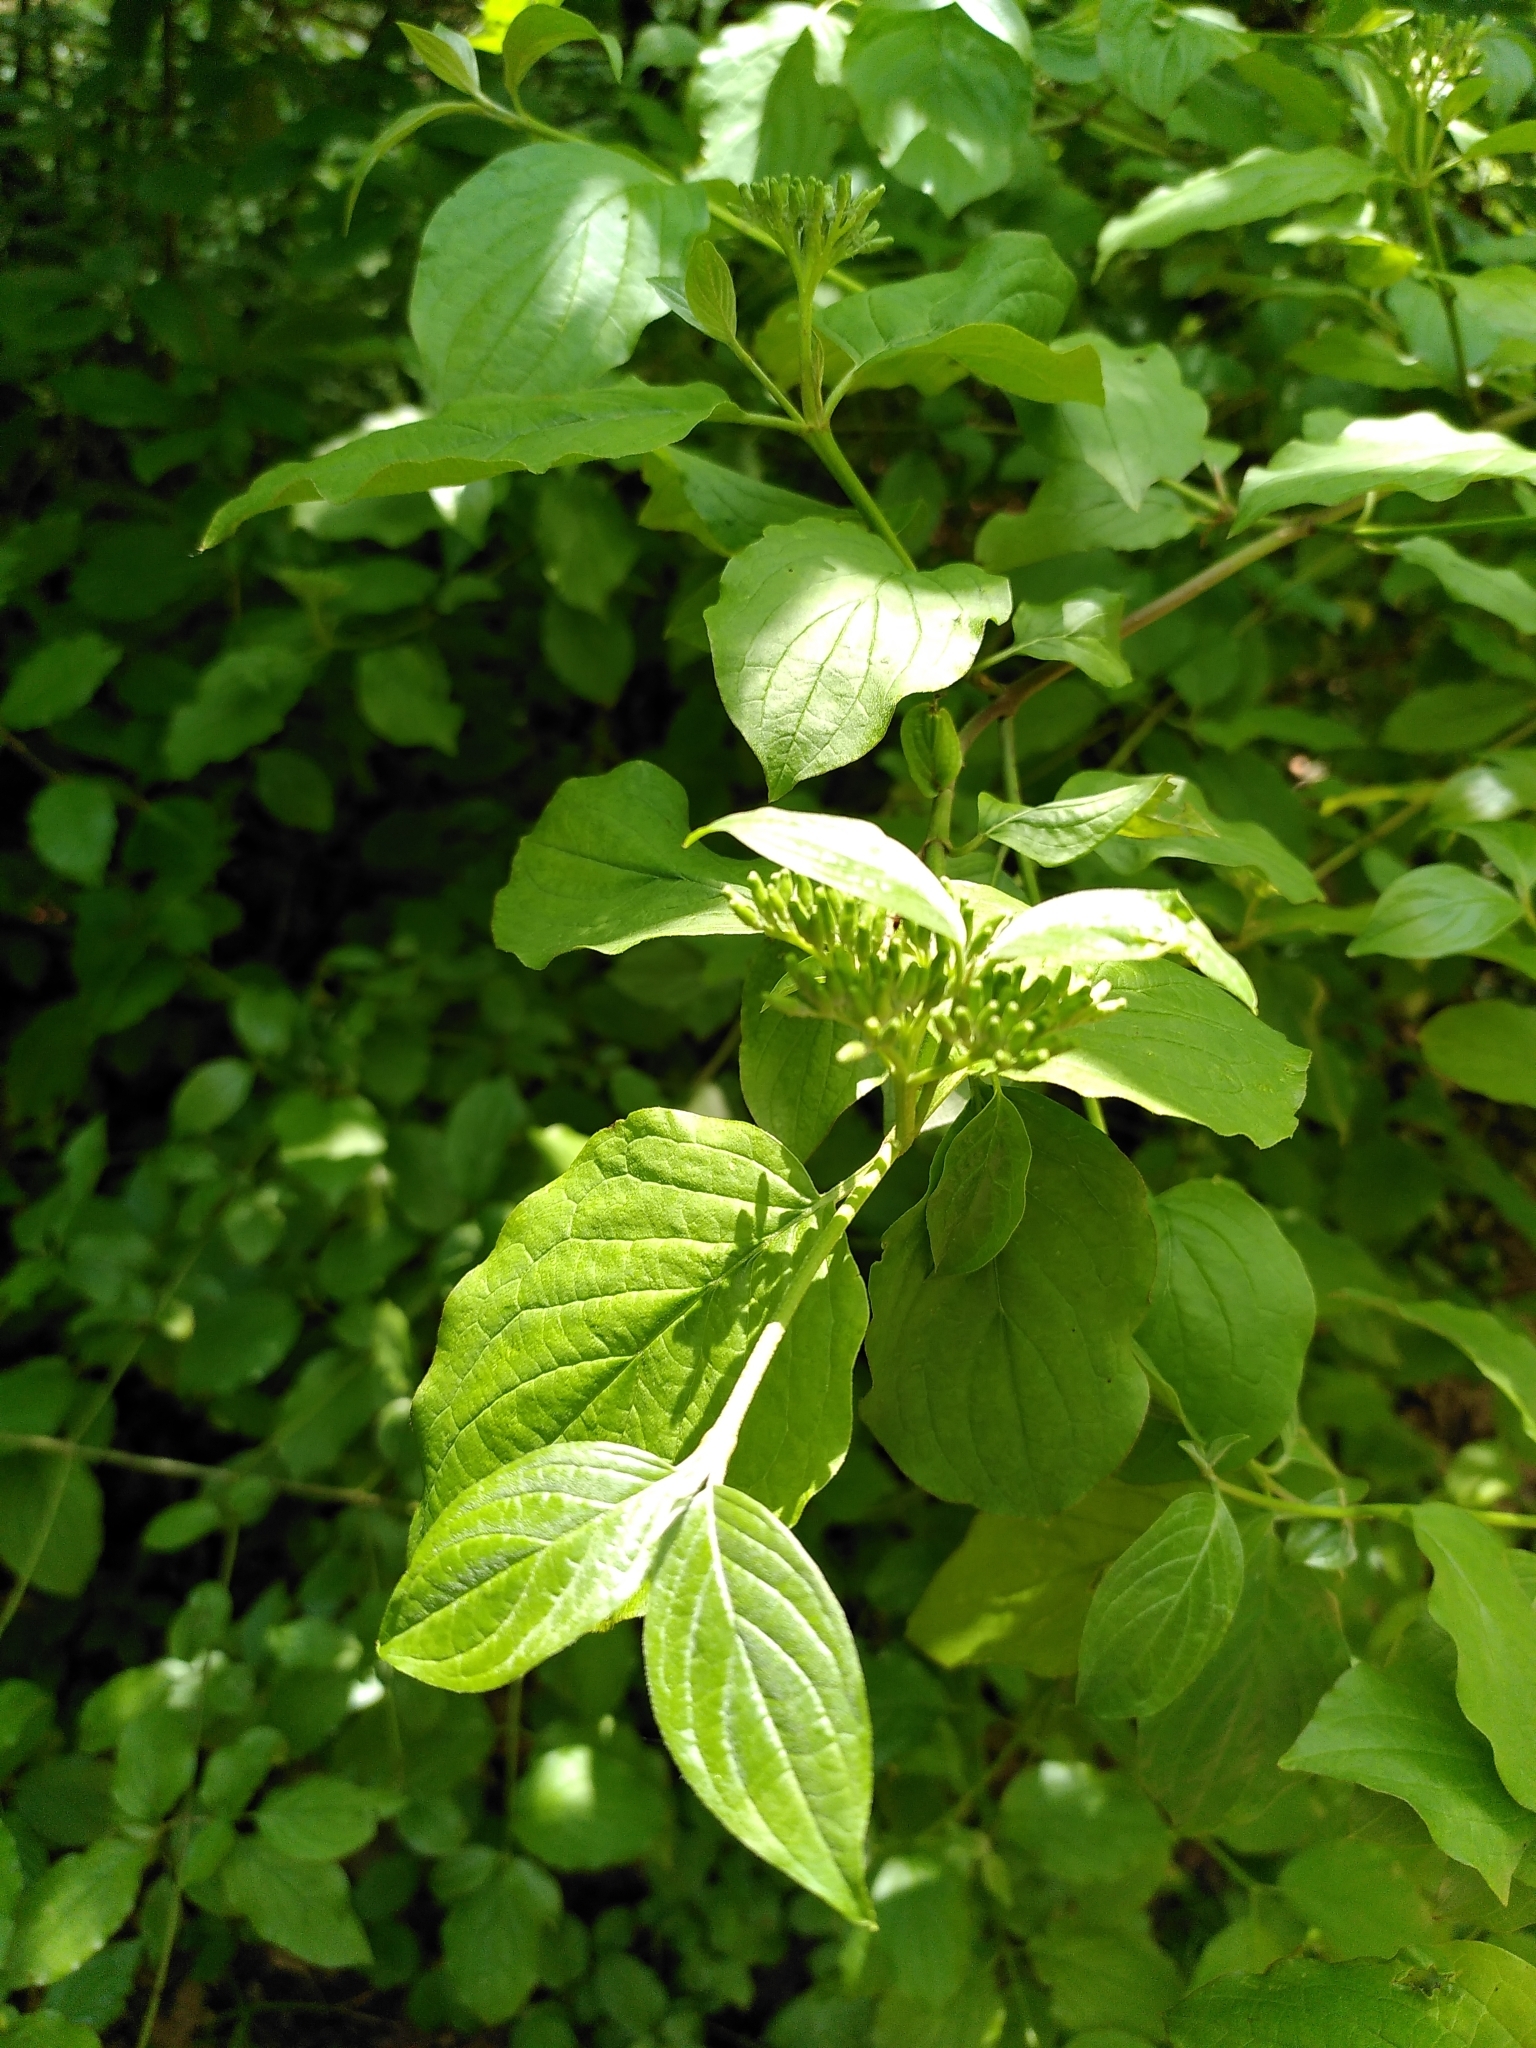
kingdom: Plantae
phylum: Tracheophyta
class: Magnoliopsida
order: Cornales
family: Cornaceae
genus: Cornus
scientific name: Cornus sanguinea
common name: Dogwood
